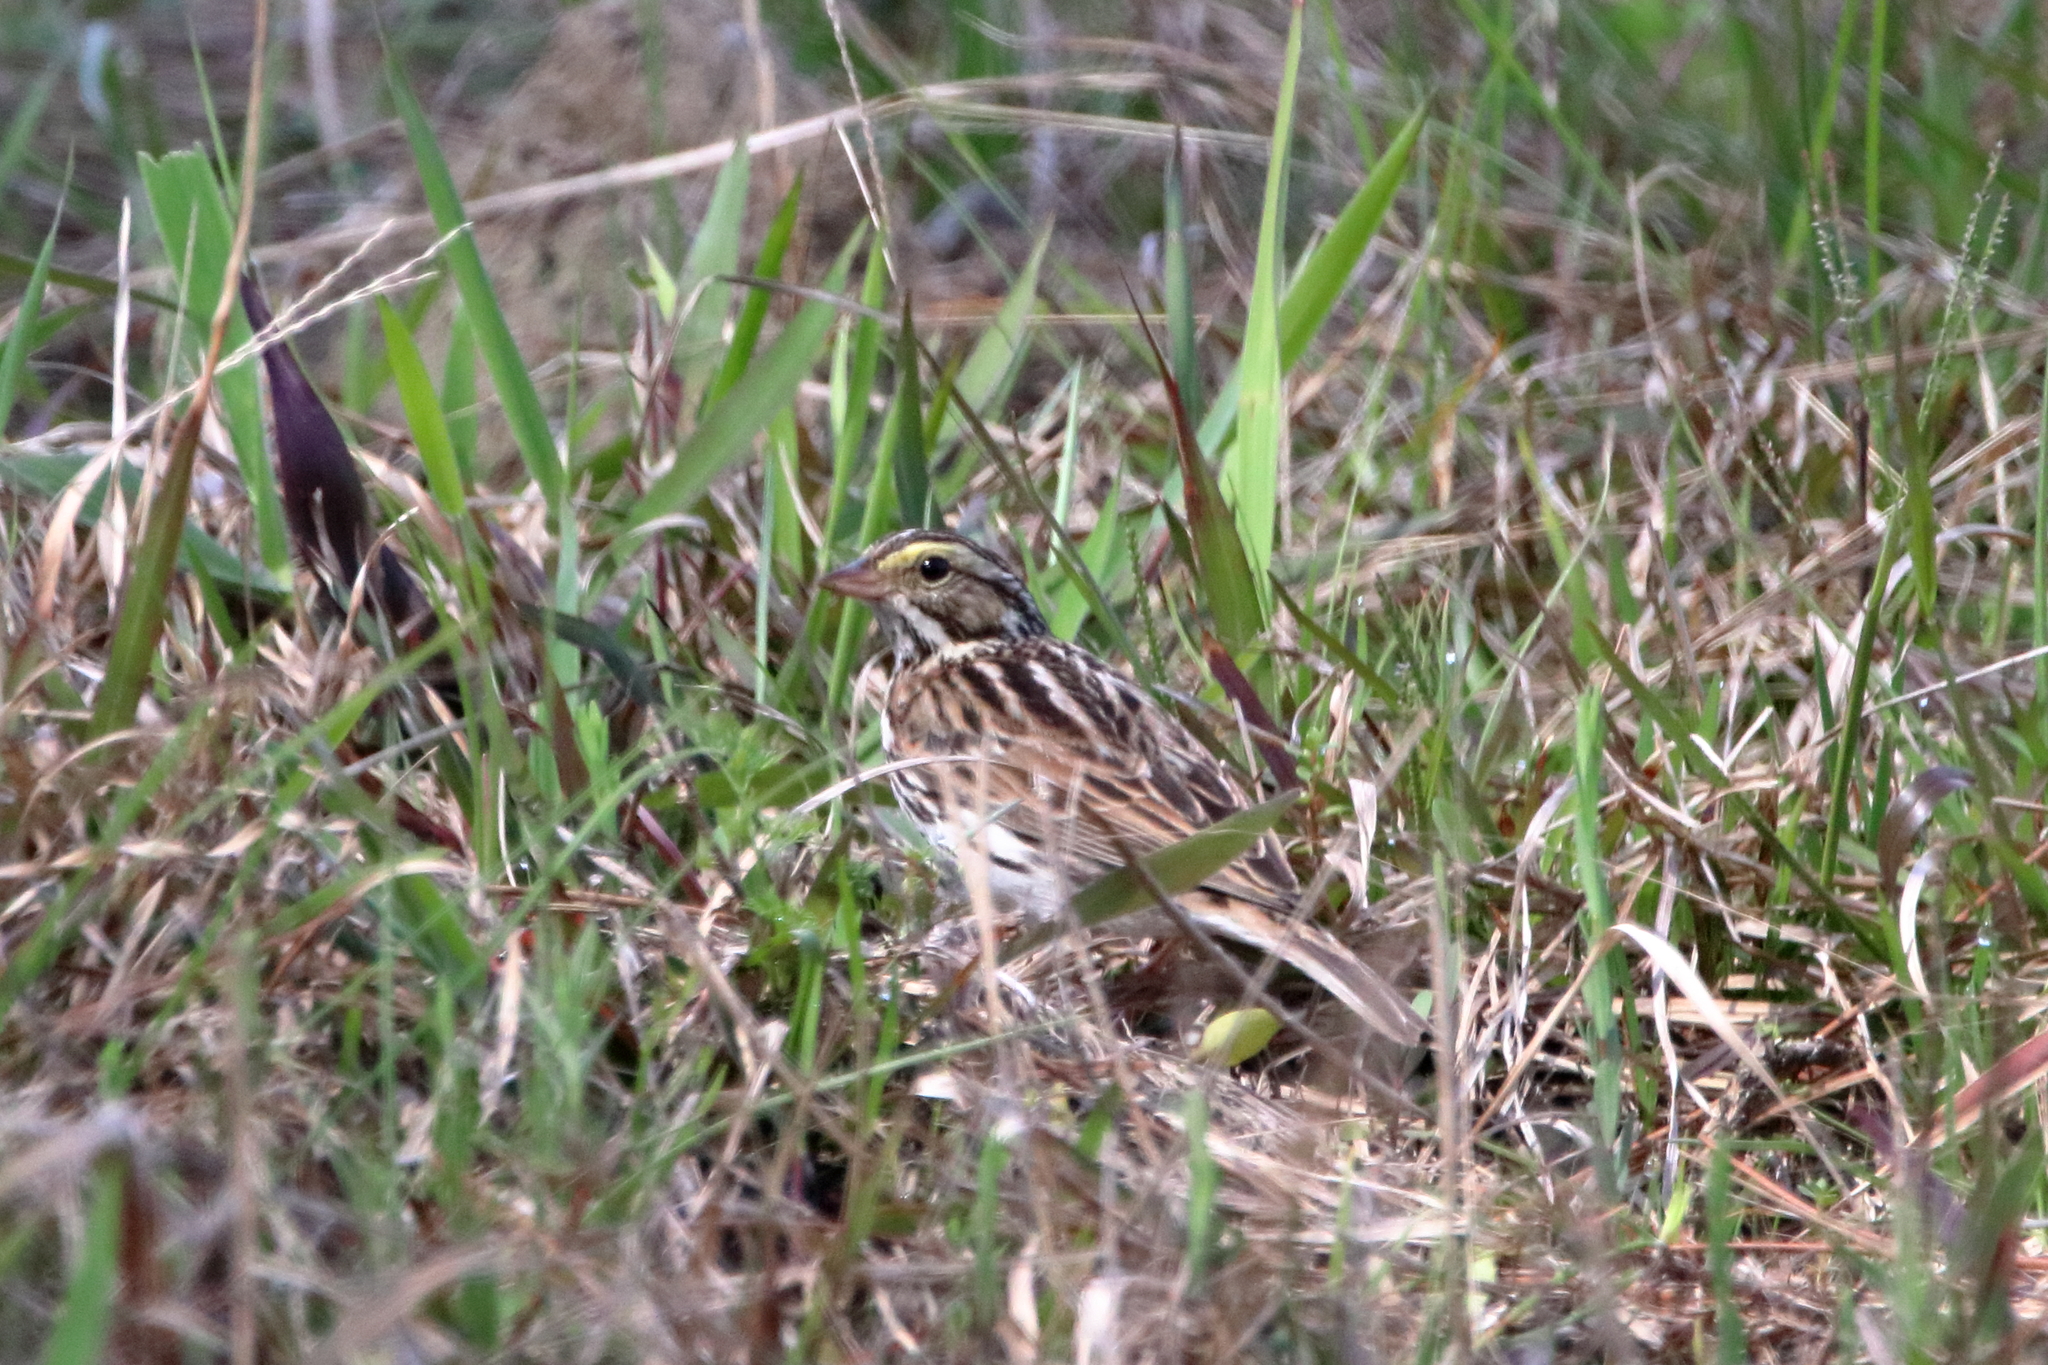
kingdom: Animalia
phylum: Chordata
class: Aves
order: Passeriformes
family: Passerellidae
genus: Passerculus
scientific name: Passerculus sandwichensis
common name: Savannah sparrow
